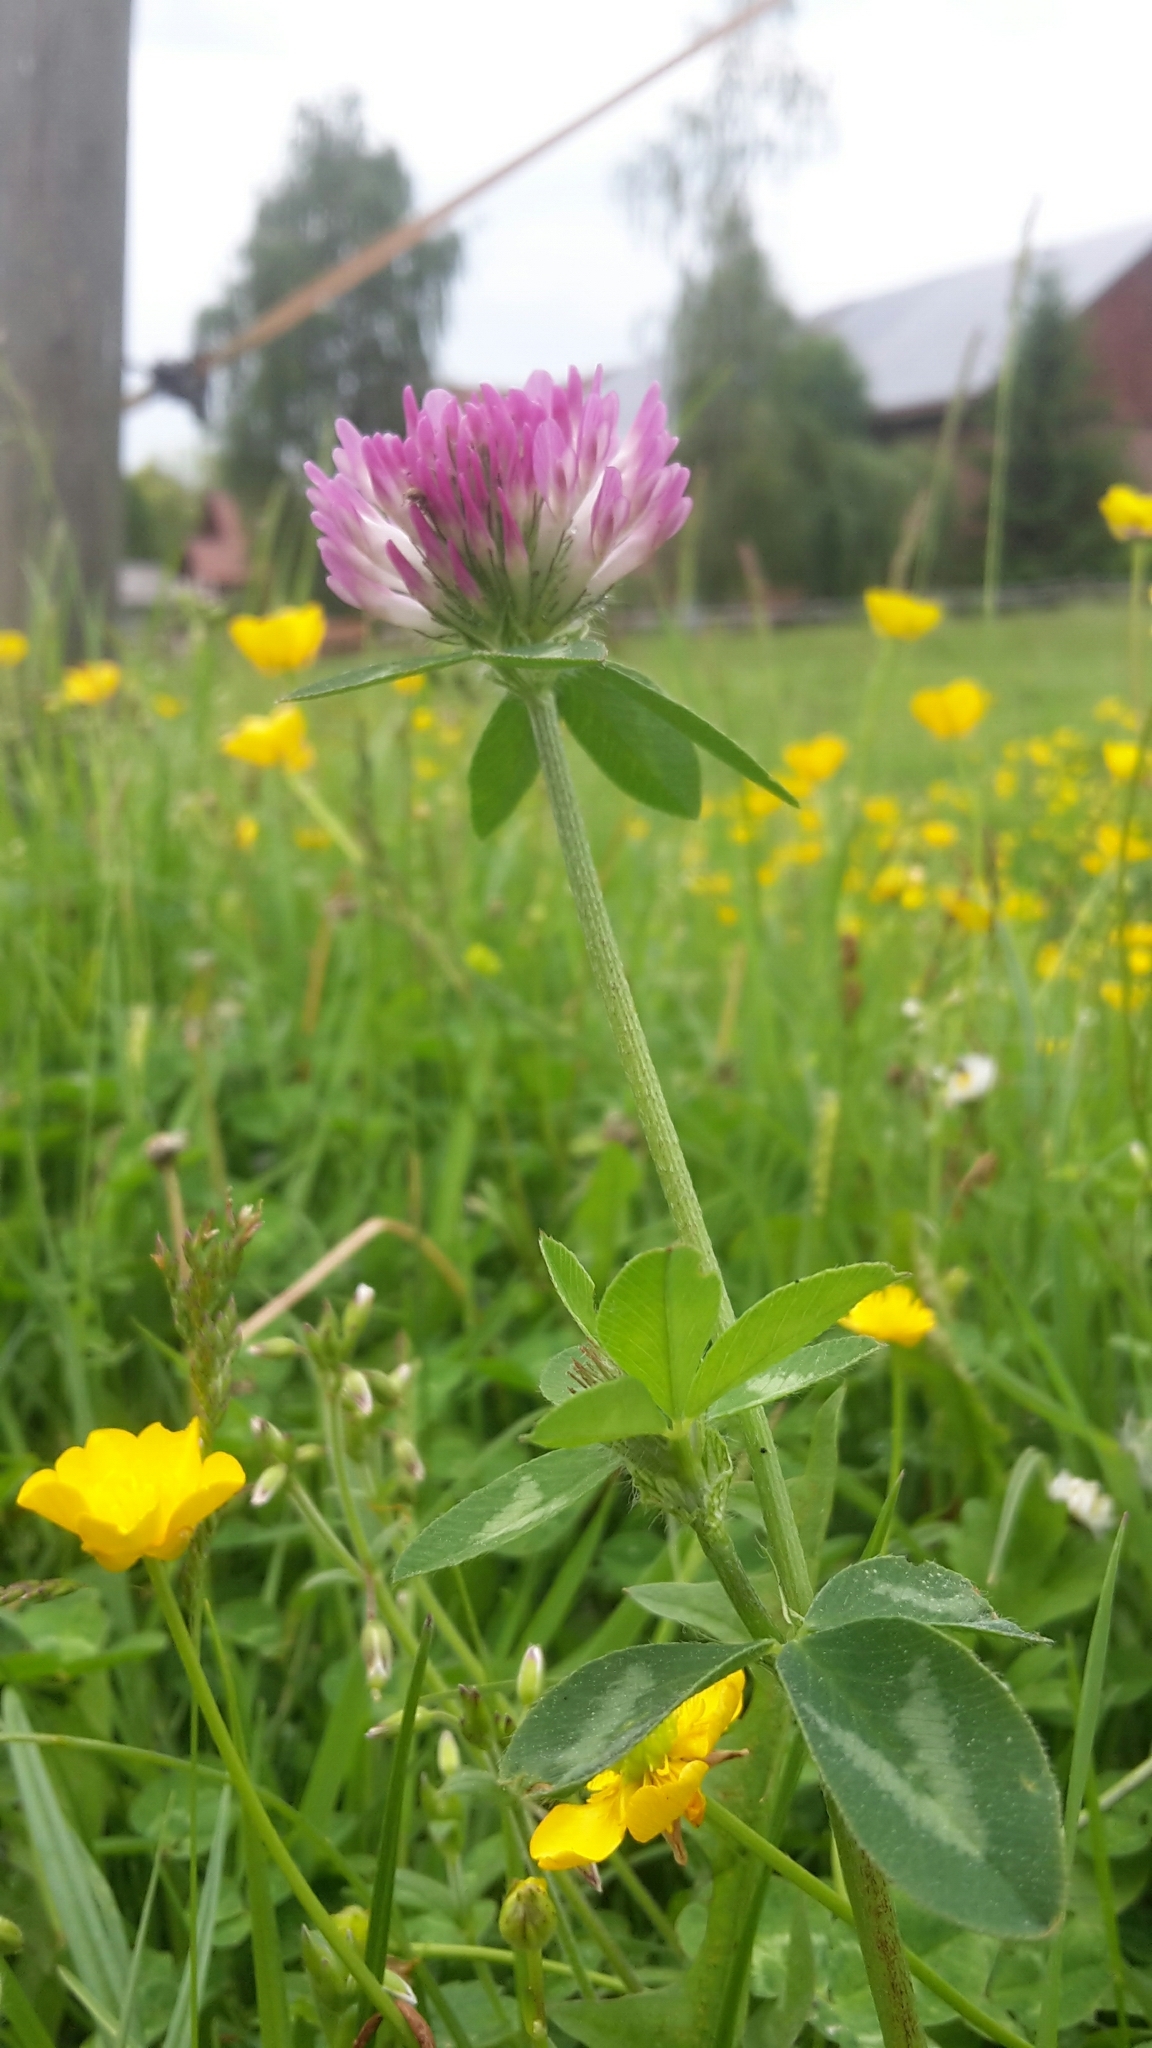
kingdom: Plantae
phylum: Tracheophyta
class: Magnoliopsida
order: Fabales
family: Fabaceae
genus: Trifolium
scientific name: Trifolium pratense
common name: Red clover
